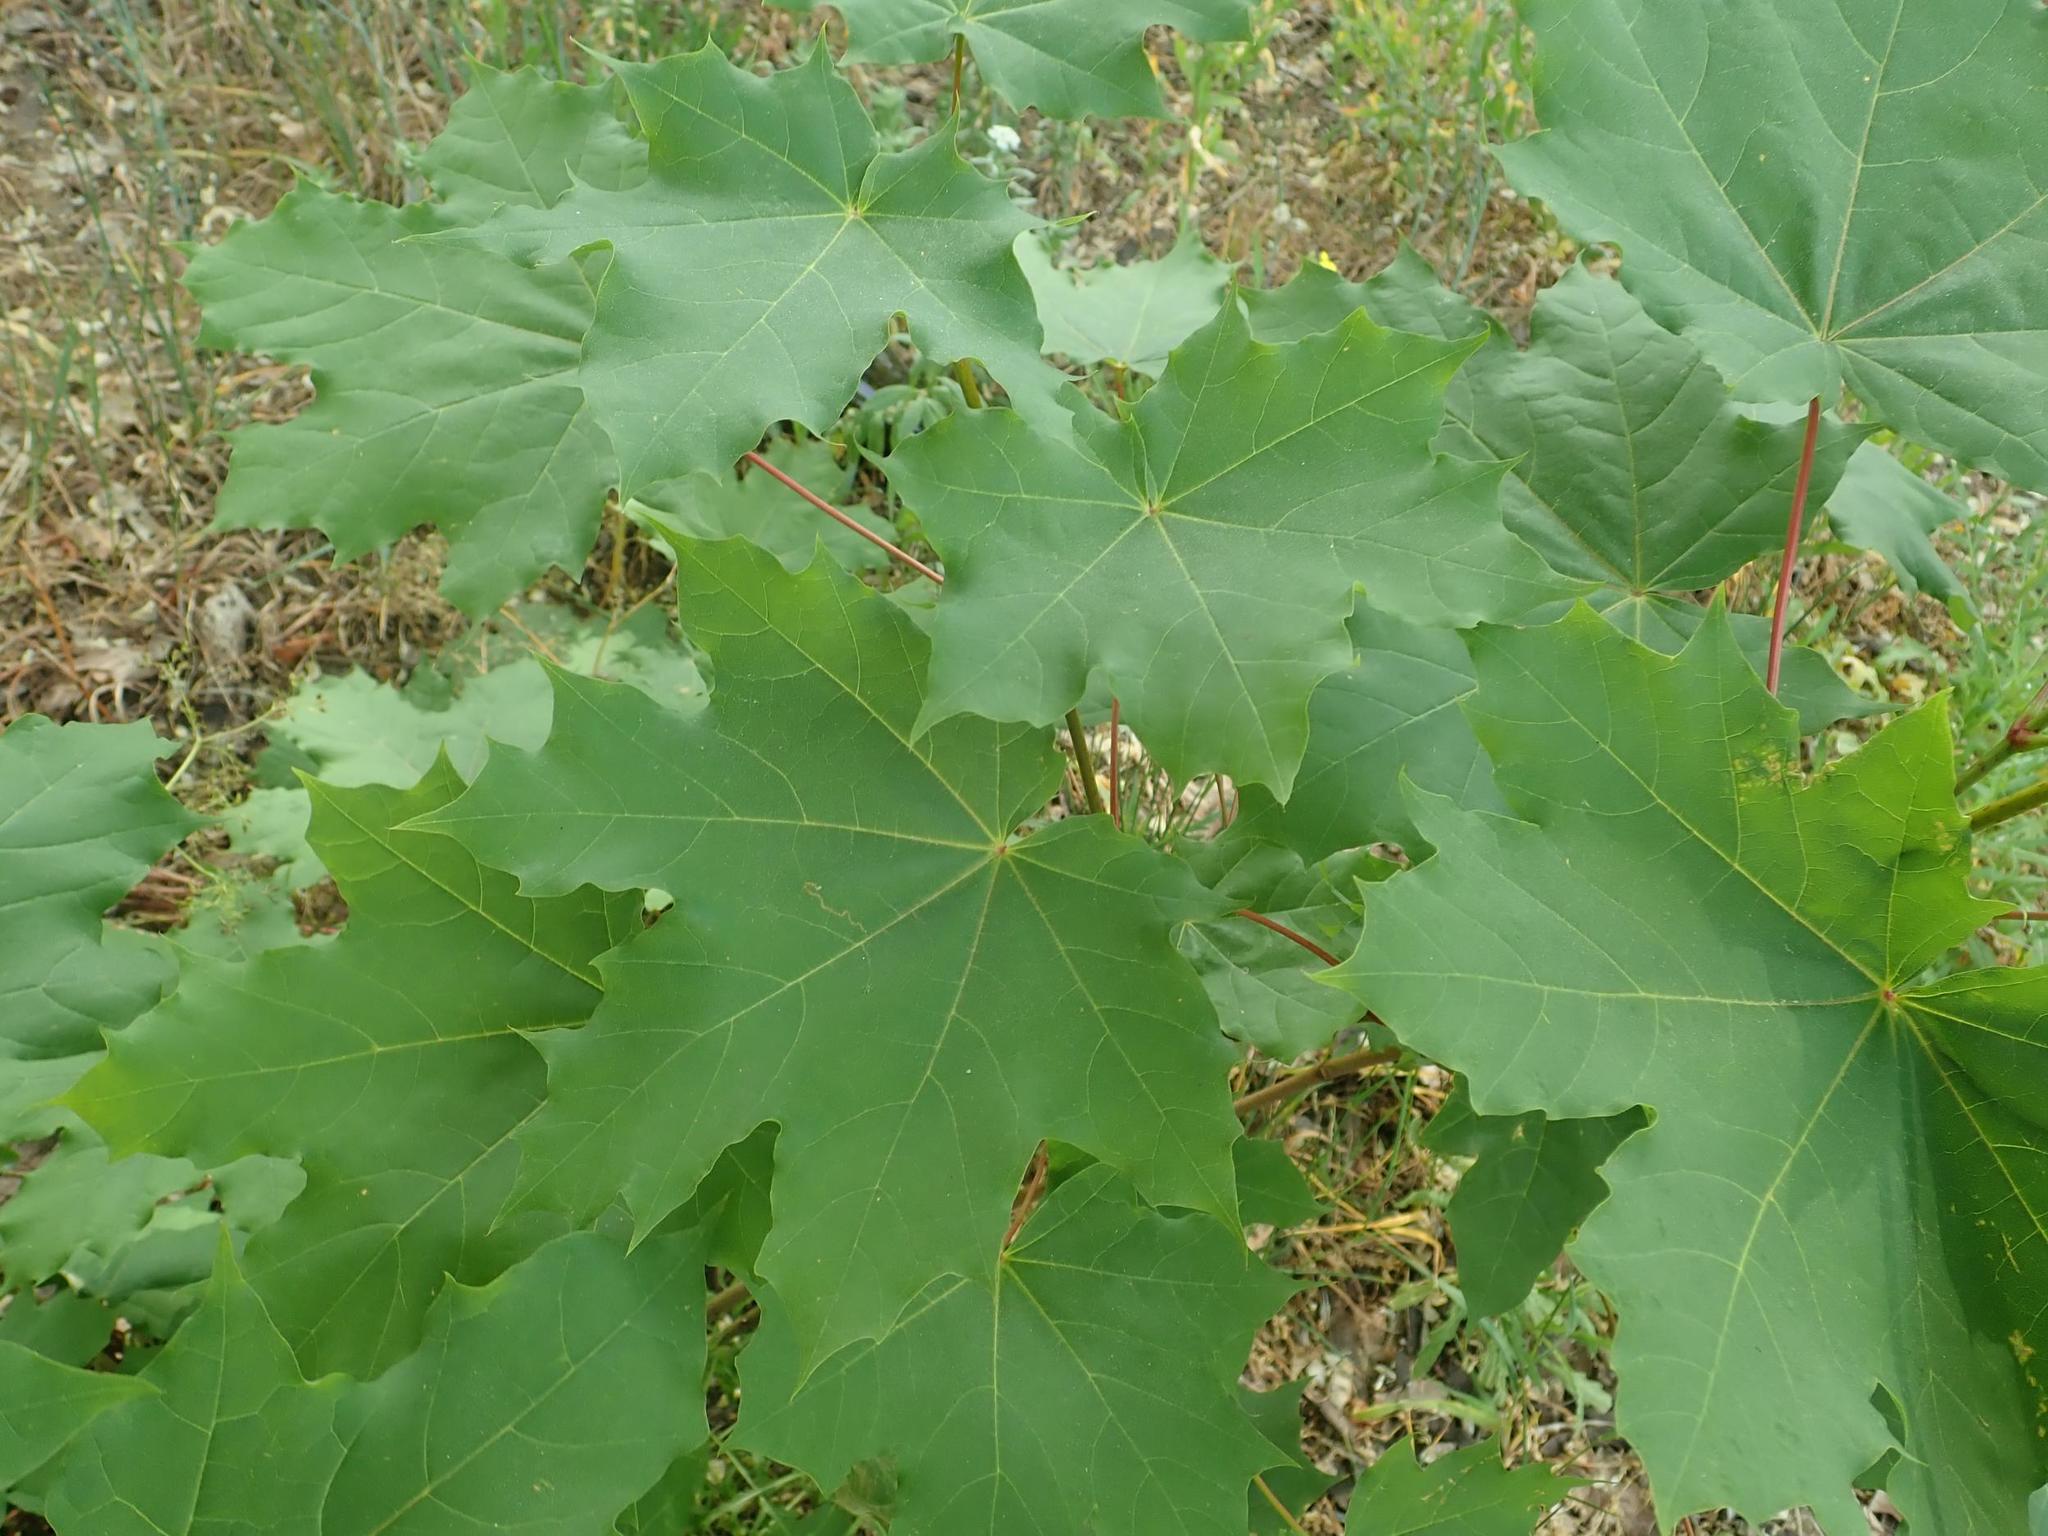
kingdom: Plantae
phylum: Tracheophyta
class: Magnoliopsida
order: Sapindales
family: Sapindaceae
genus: Acer
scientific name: Acer platanoides
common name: Norway maple
